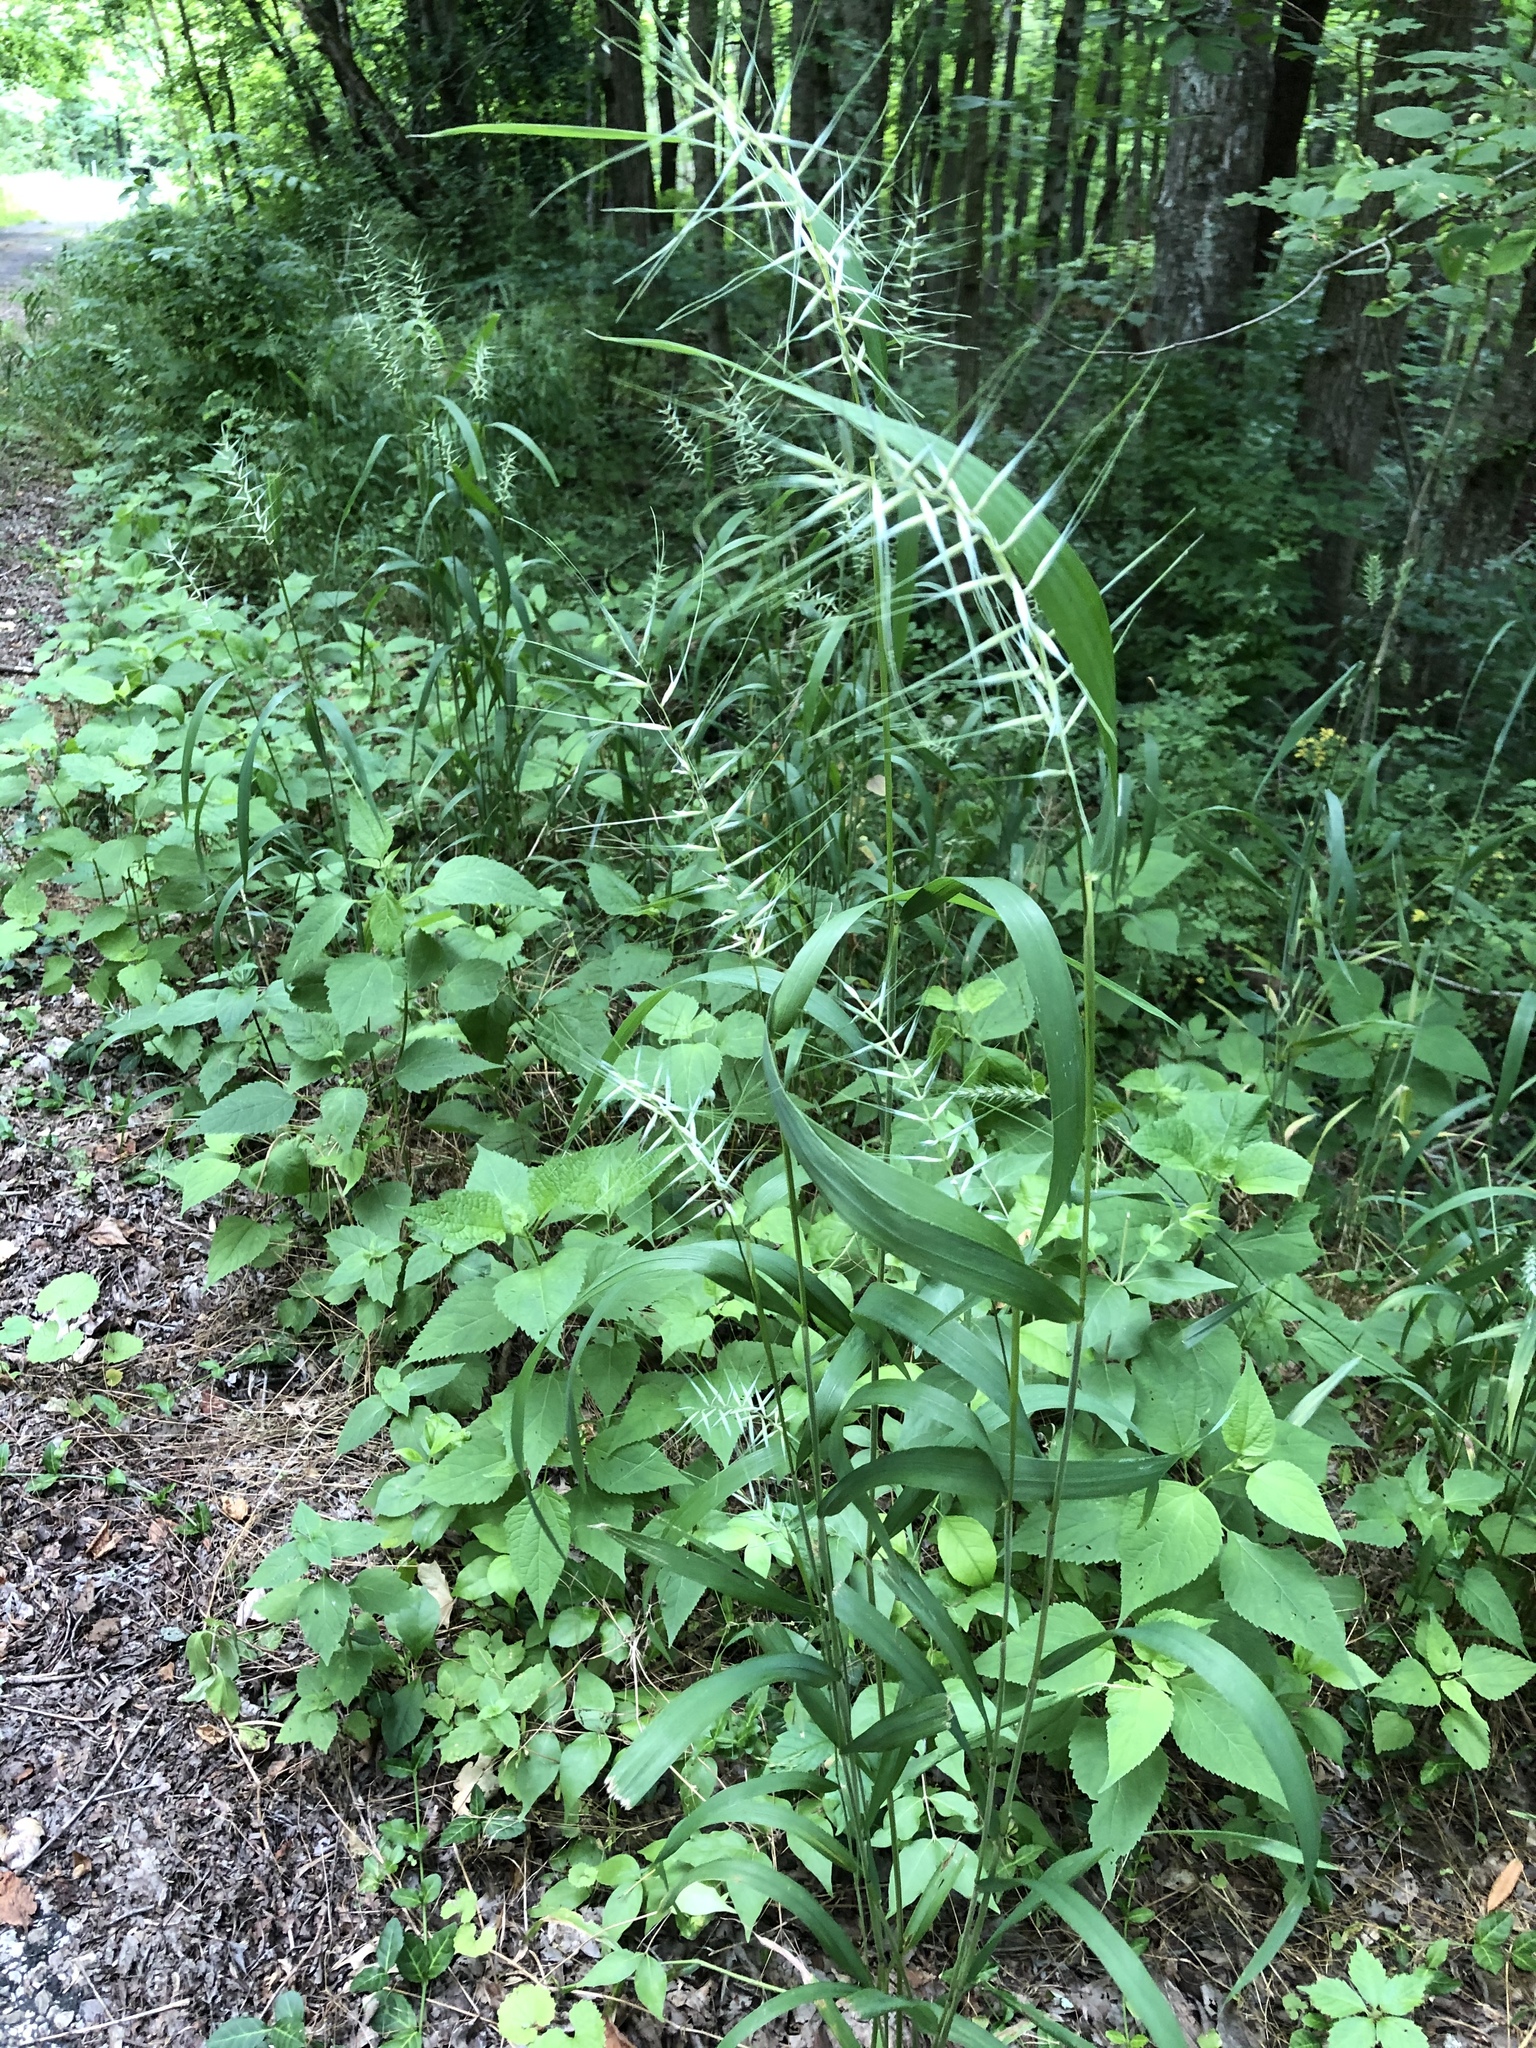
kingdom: Plantae
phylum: Tracheophyta
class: Liliopsida
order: Poales
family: Poaceae
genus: Elymus
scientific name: Elymus hystrix
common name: Bottlebrush grass
